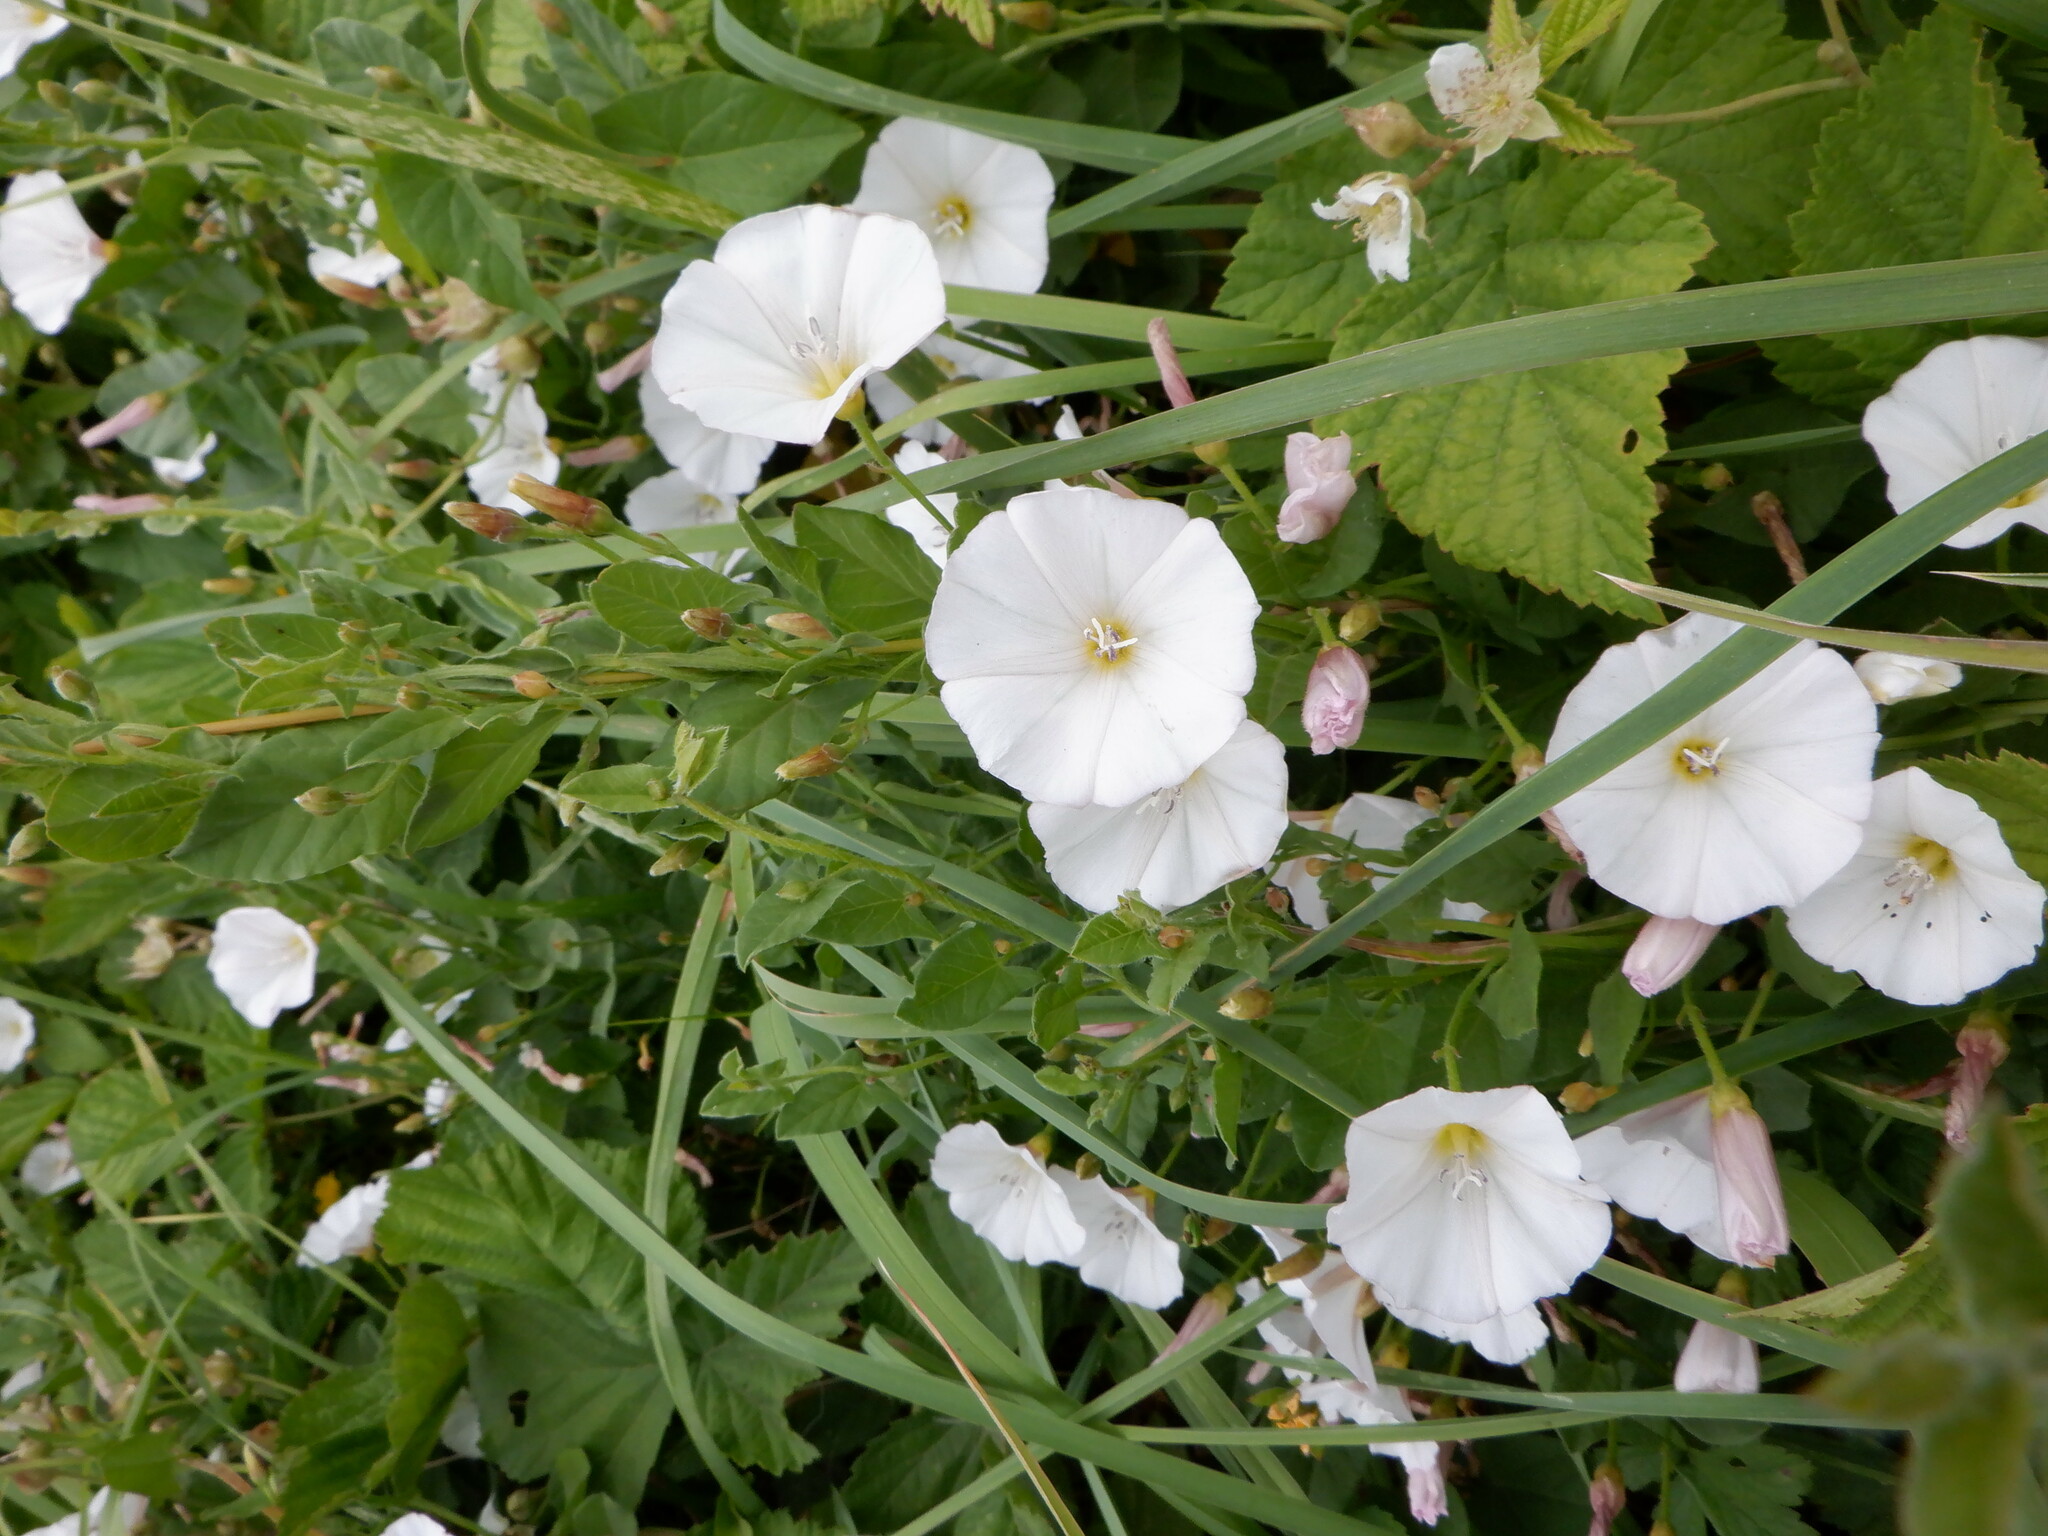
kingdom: Plantae
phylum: Tracheophyta
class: Magnoliopsida
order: Solanales
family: Convolvulaceae
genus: Convolvulus
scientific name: Convolvulus arvensis
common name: Field bindweed
